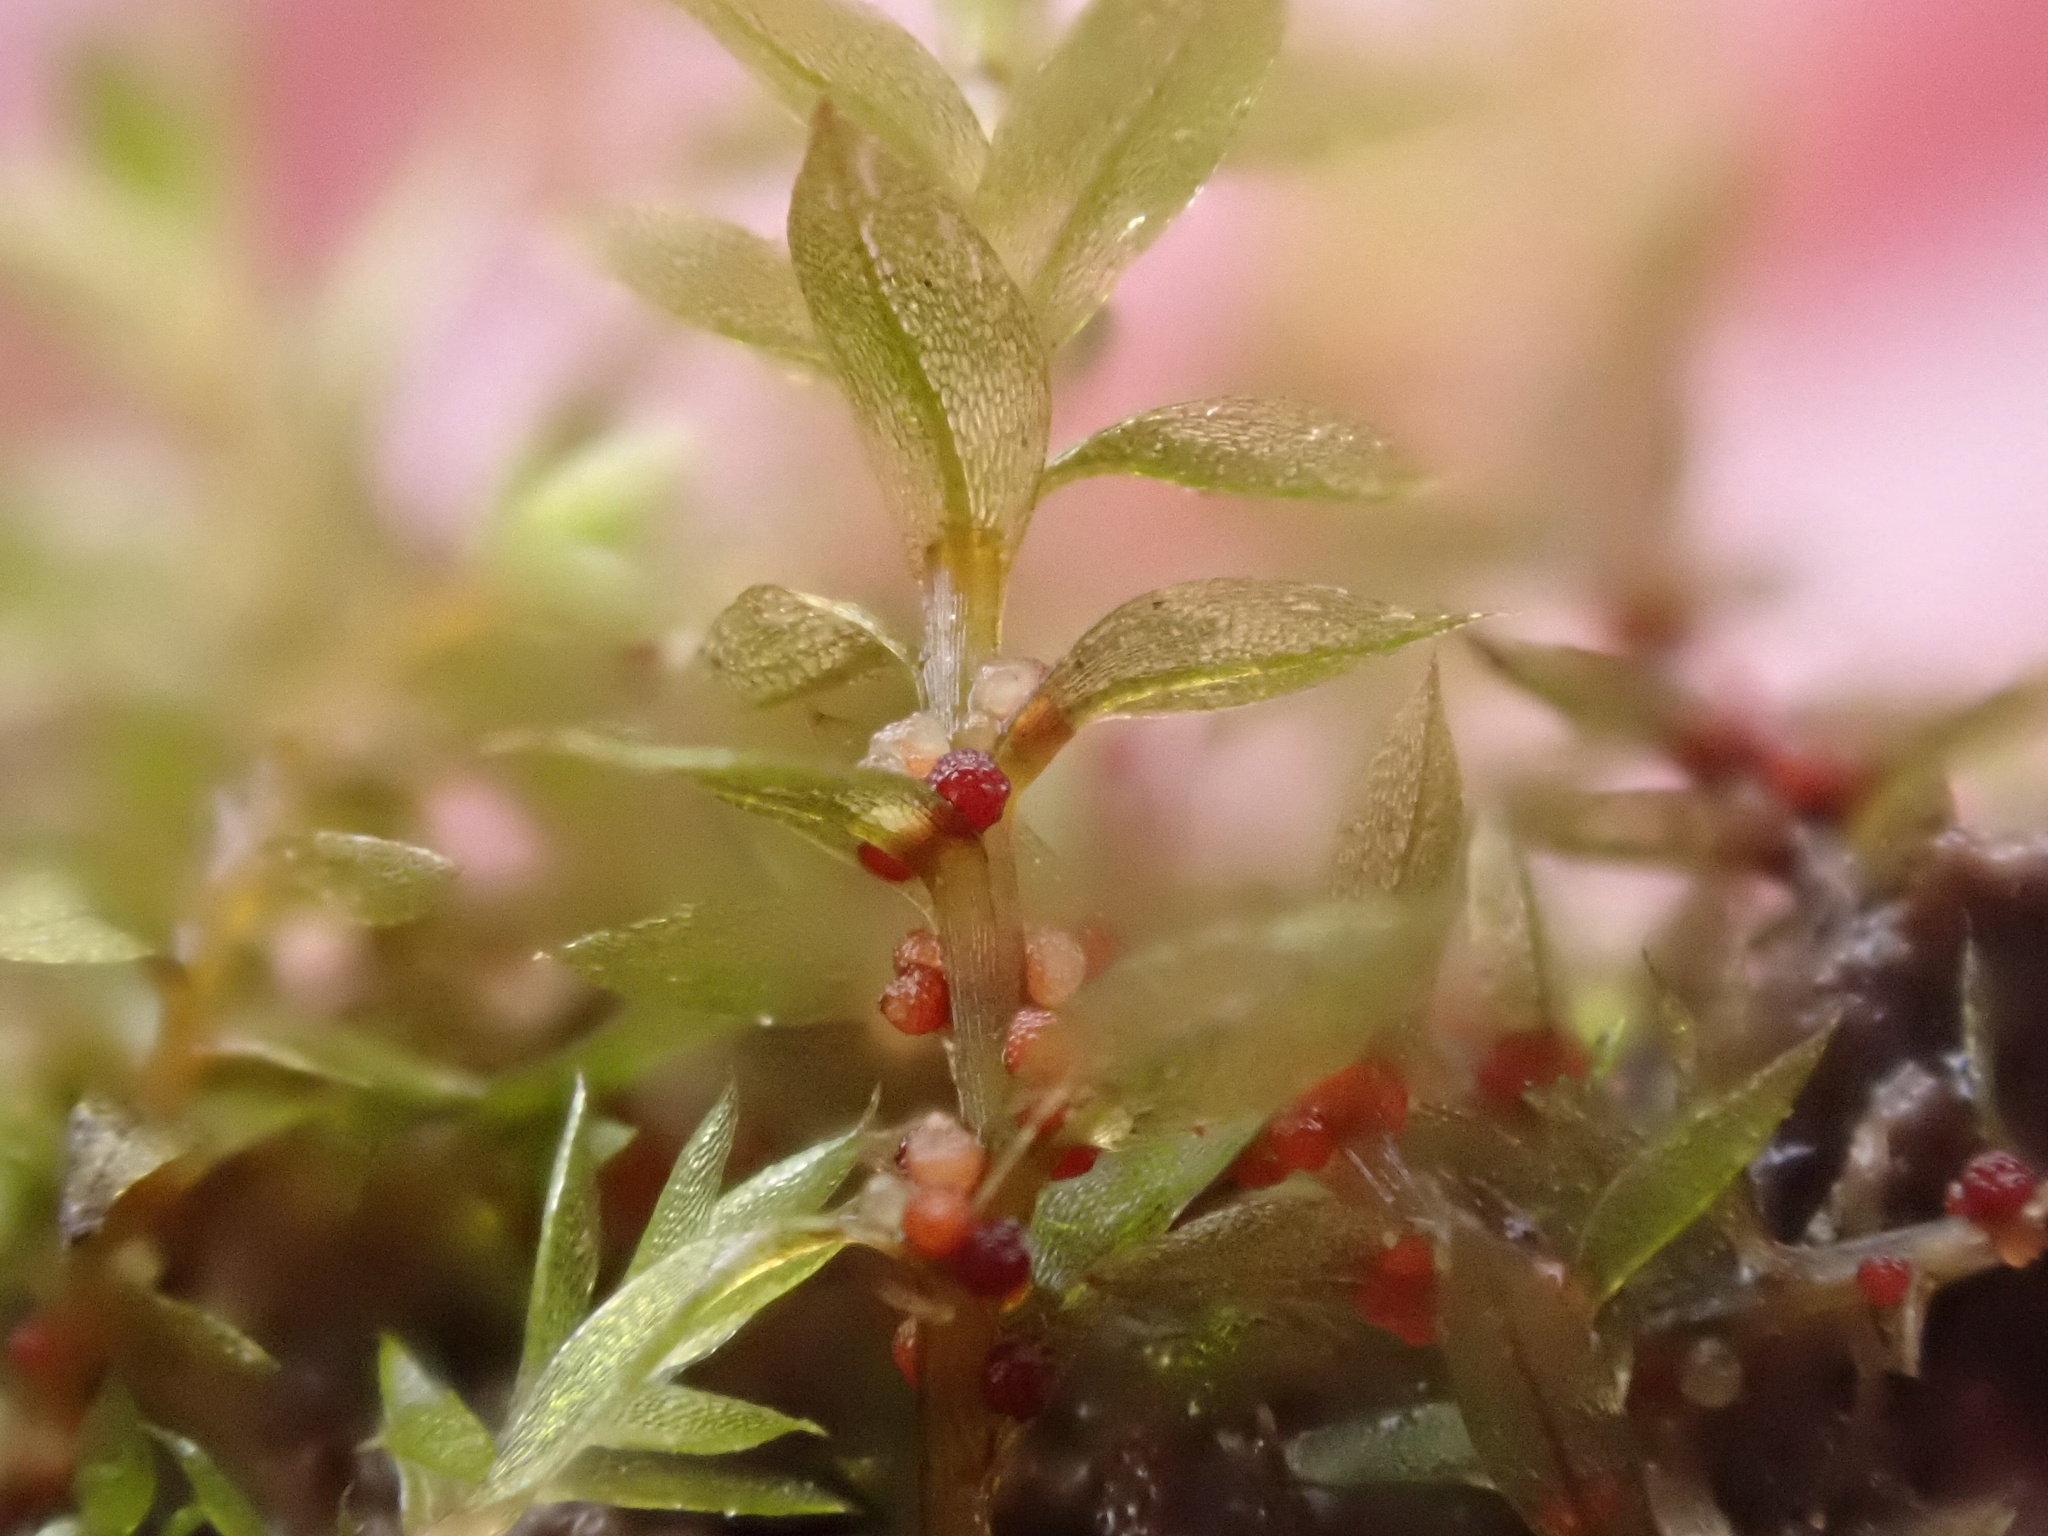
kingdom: Plantae
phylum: Bryophyta
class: Bryopsida
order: Bryales
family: Bryaceae
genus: Rosulabryum
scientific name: Rosulabryum rubens
